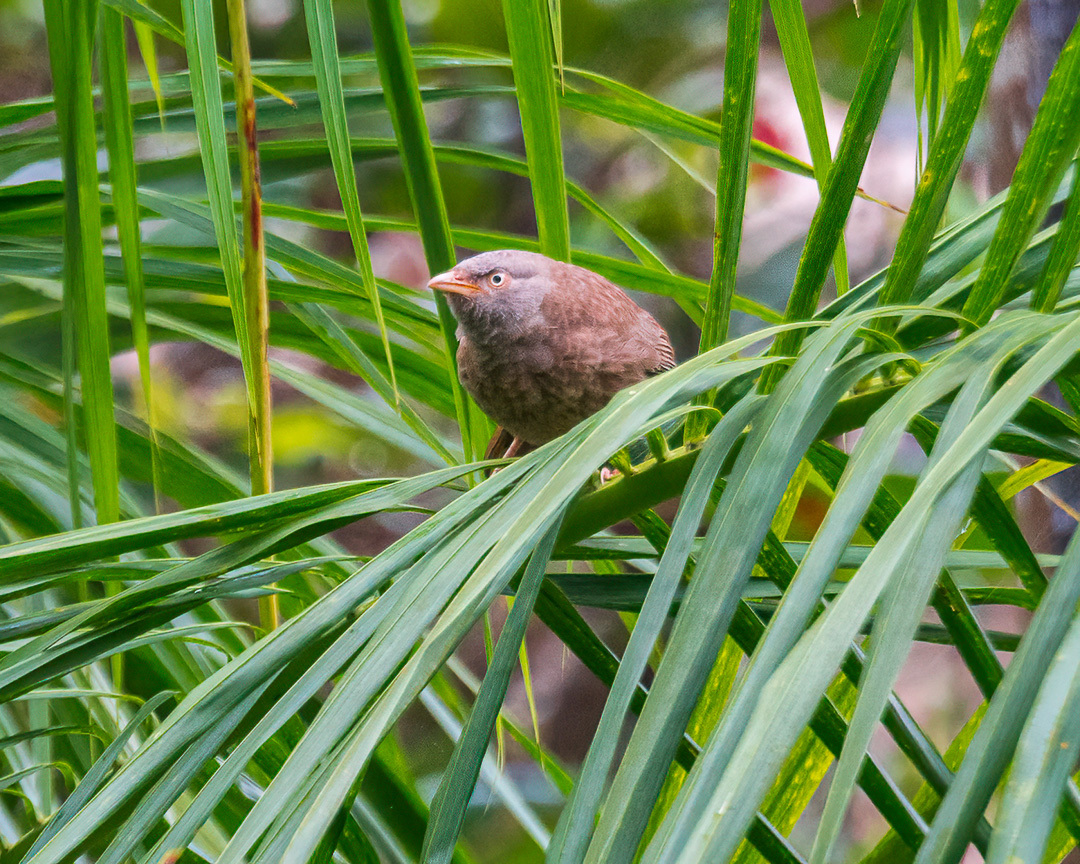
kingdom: Animalia
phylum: Chordata
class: Aves
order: Passeriformes
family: Leiothrichidae
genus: Turdoides
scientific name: Turdoides striata
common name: Jungle babbler
